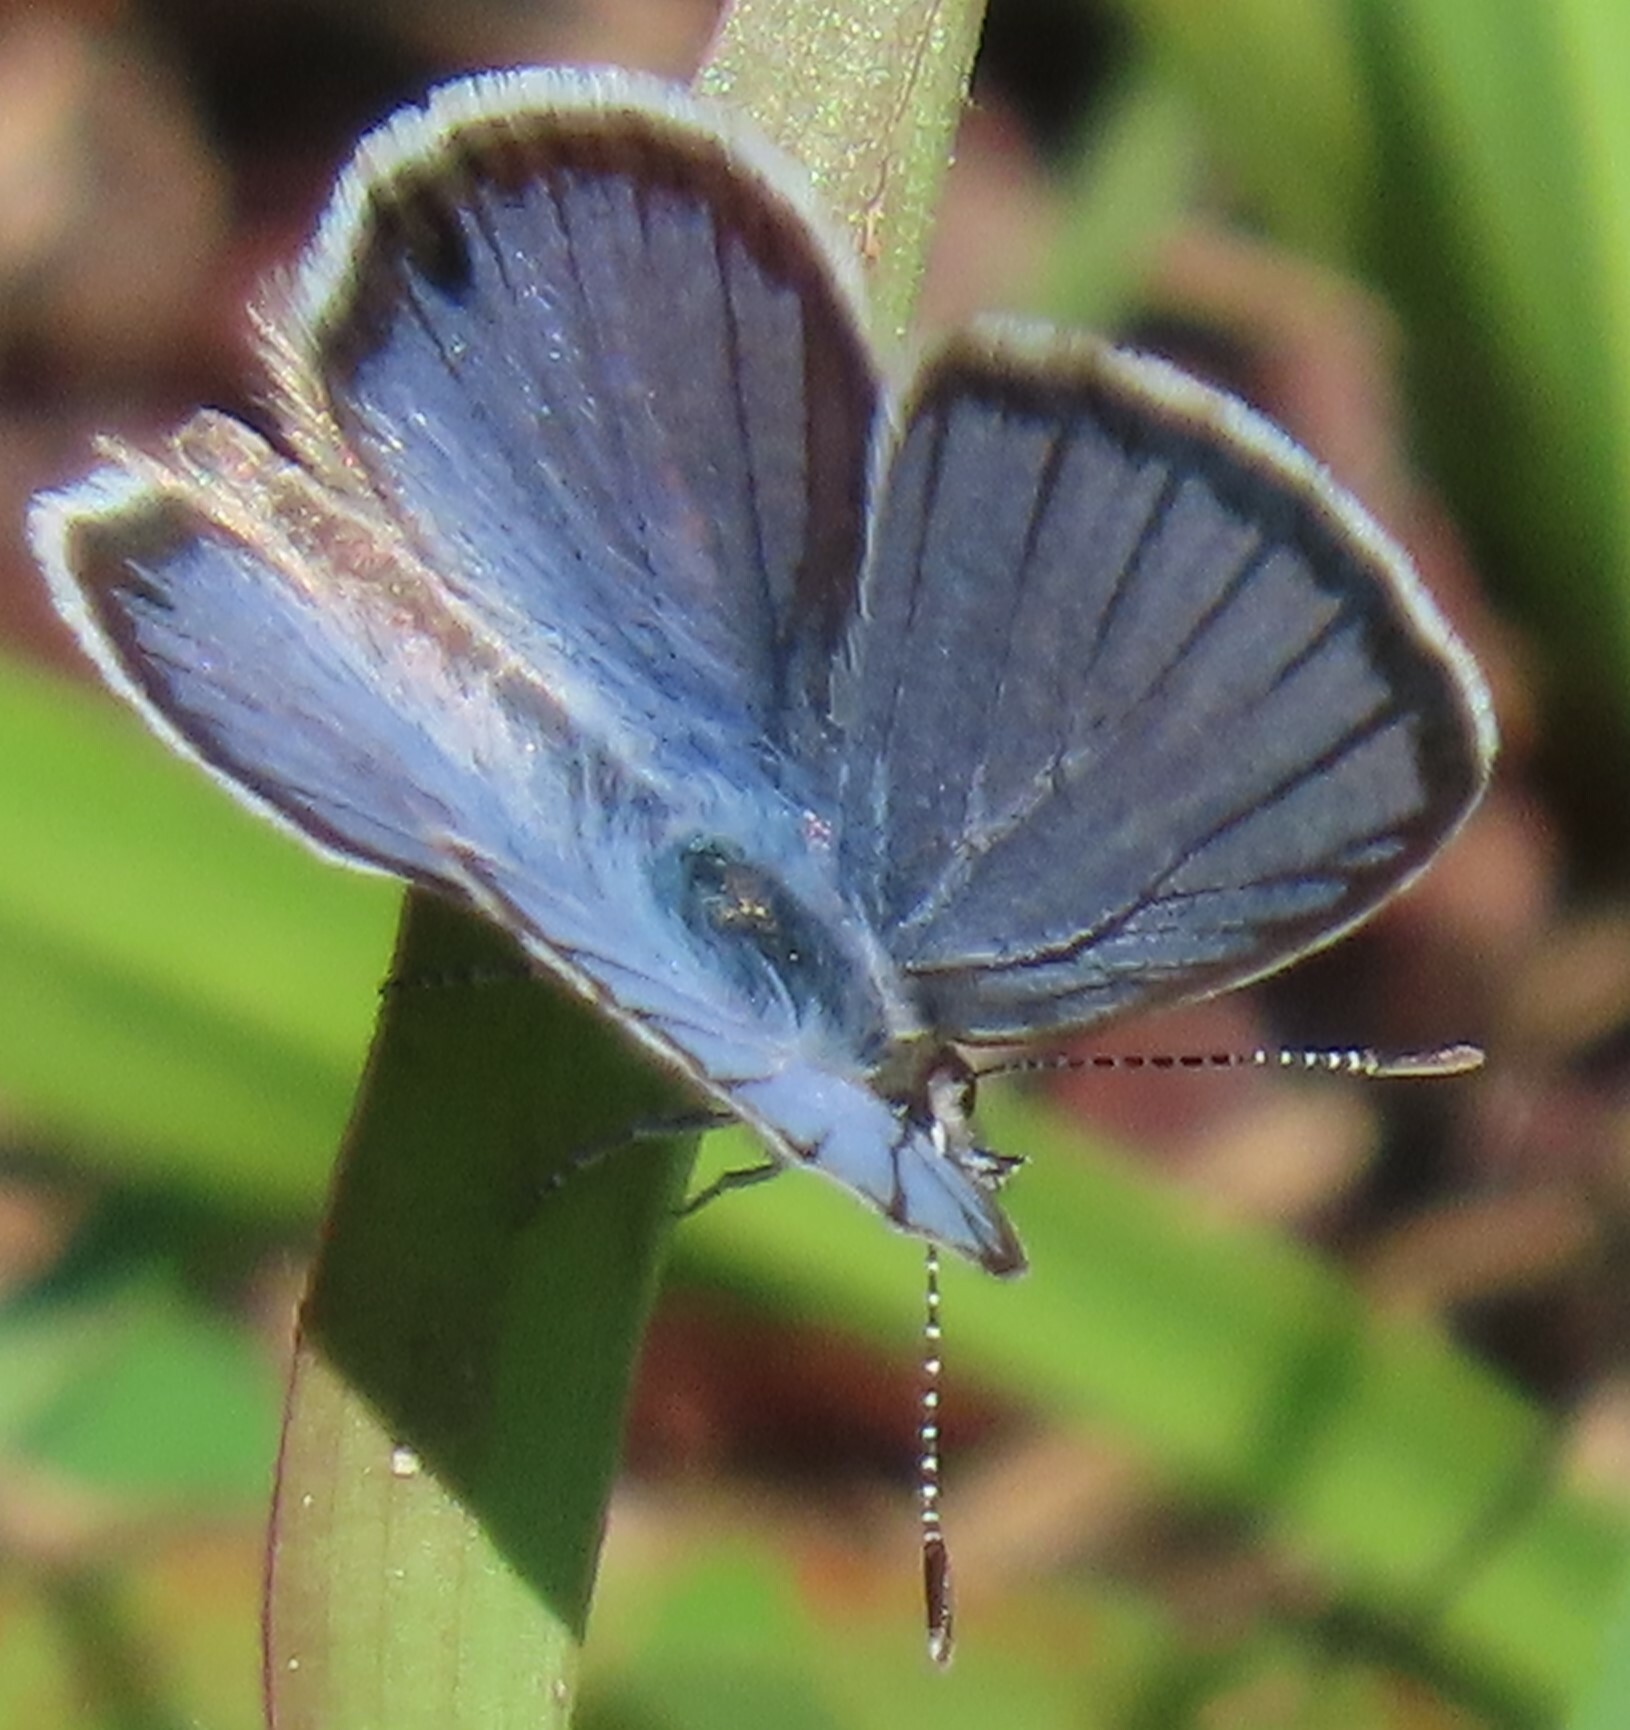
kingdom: Animalia
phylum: Arthropoda
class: Insecta
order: Lepidoptera
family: Lycaenidae
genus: Hemiargus
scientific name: Hemiargus ceraunus
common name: Ceraunus blue
